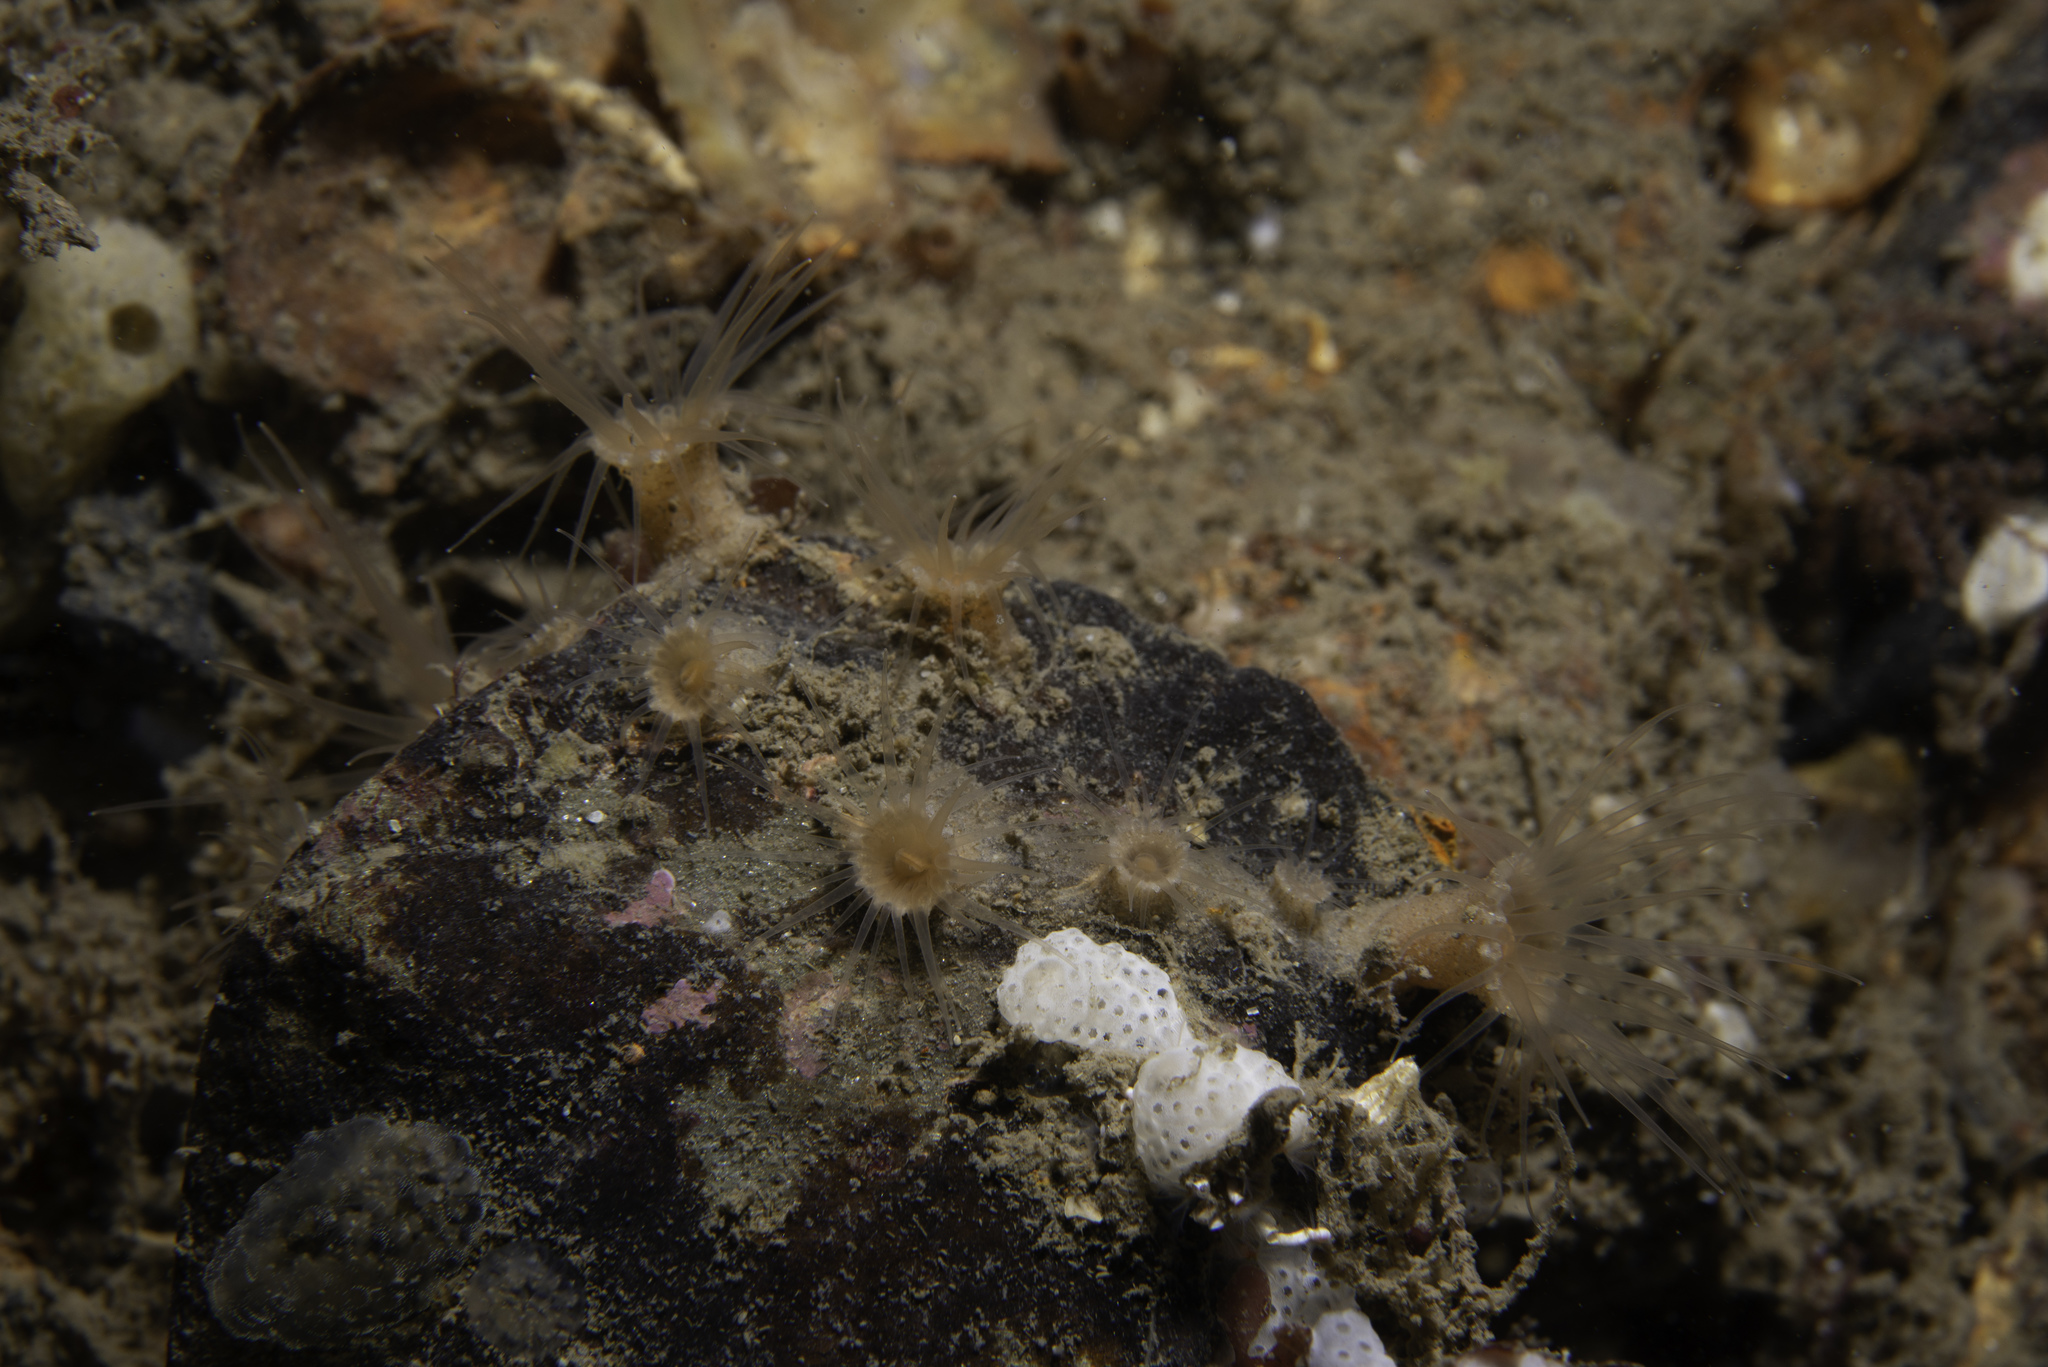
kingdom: Animalia
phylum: Cnidaria
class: Anthozoa
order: Zoantharia
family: Epizoanthidae
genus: Epizoanthus
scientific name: Epizoanthus couchii
